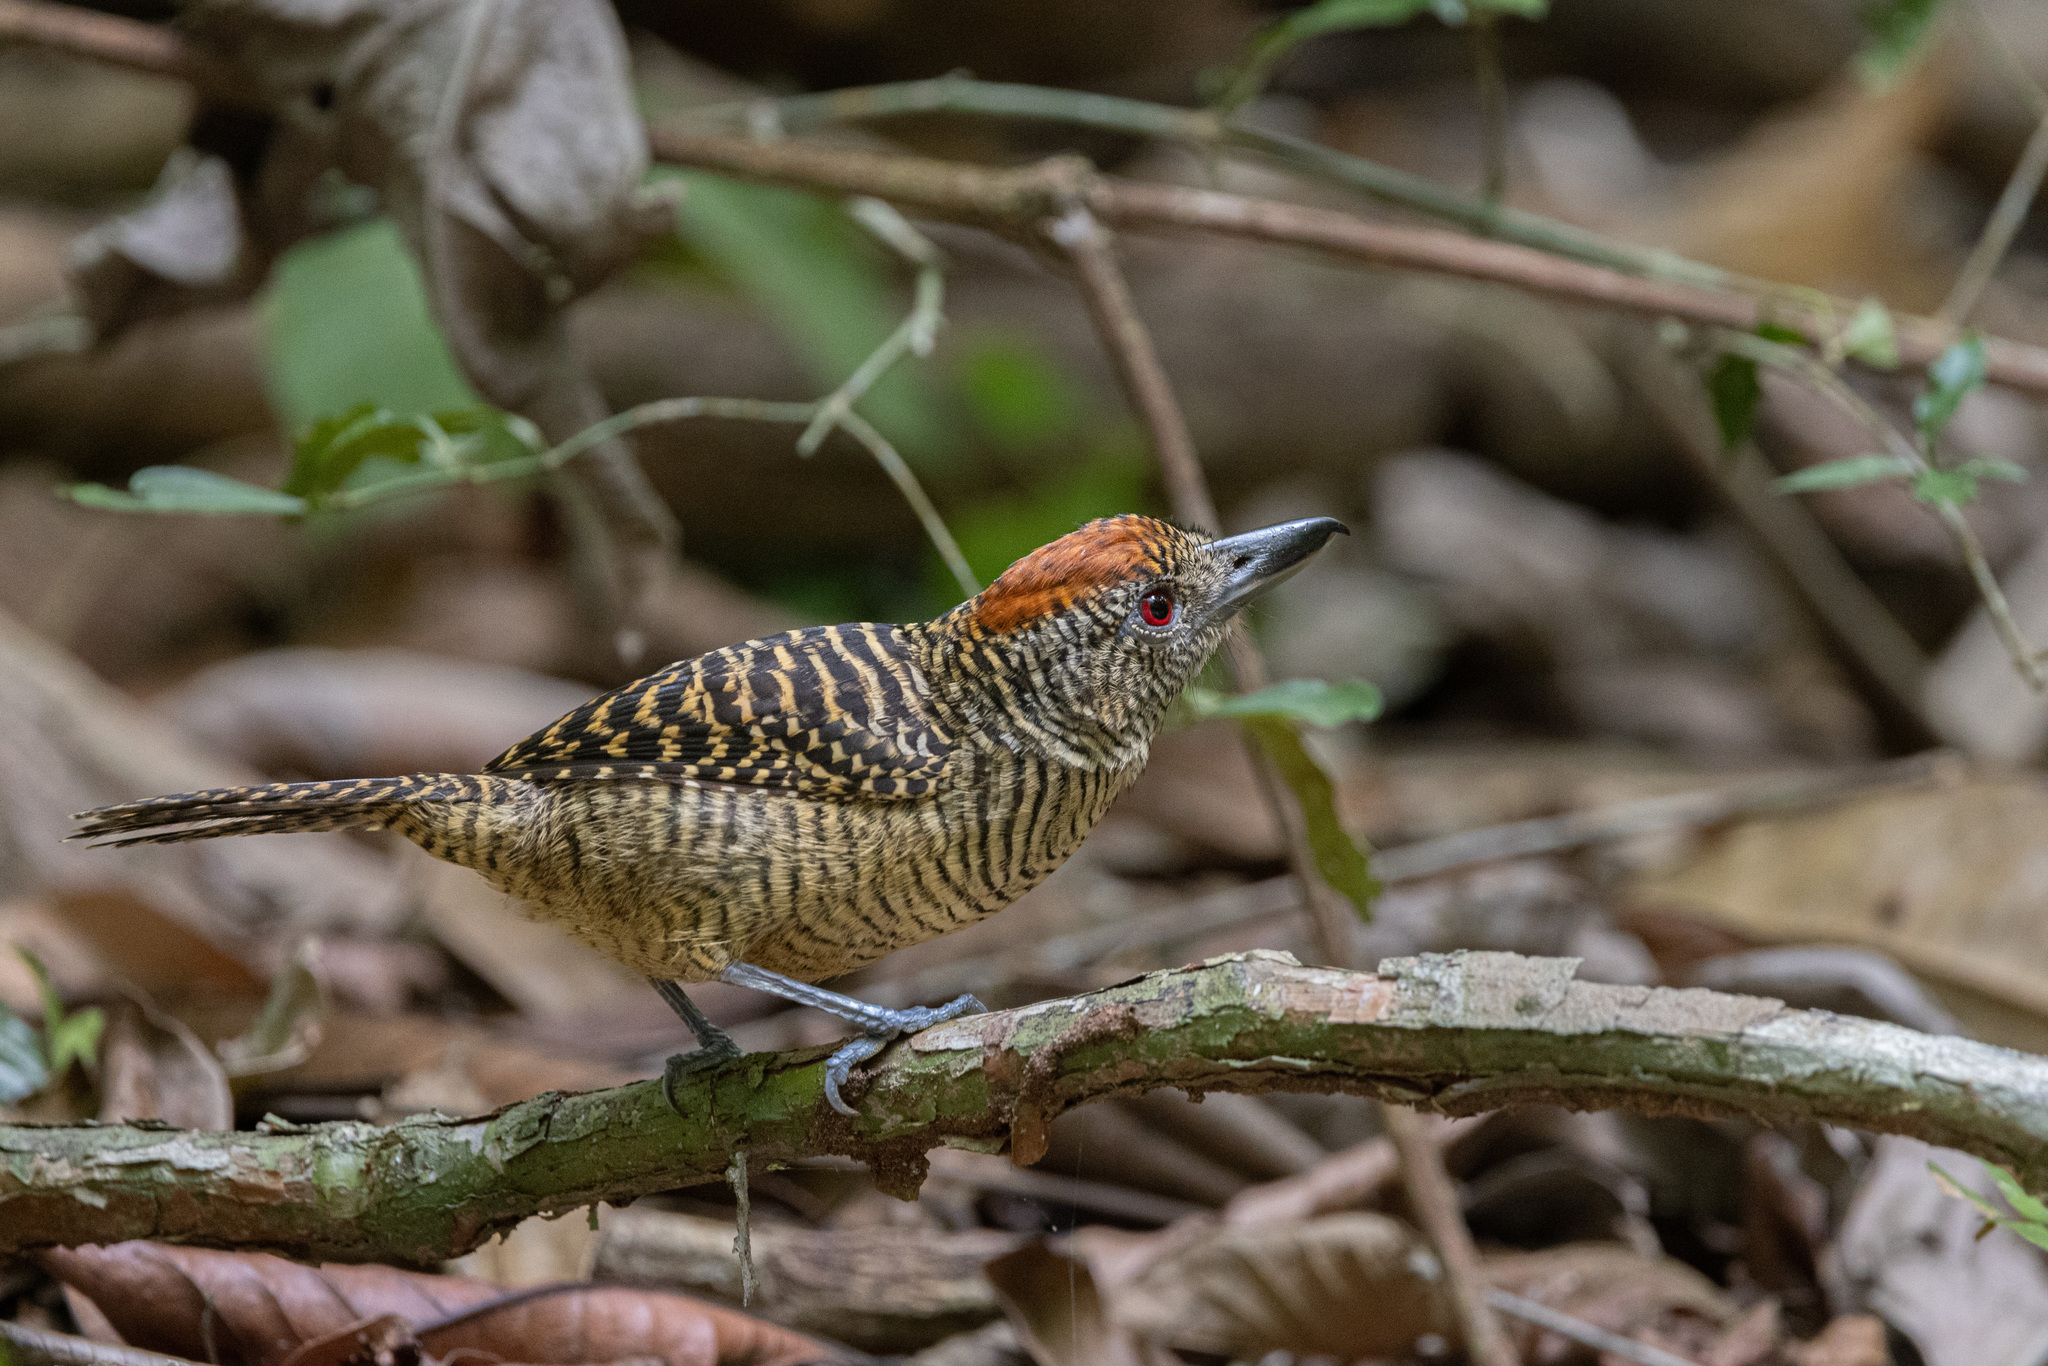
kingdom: Animalia
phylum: Chordata
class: Aves
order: Passeriformes
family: Thamnophilidae
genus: Cymbilaimus
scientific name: Cymbilaimus lineatus
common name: Fasciated antshrike
